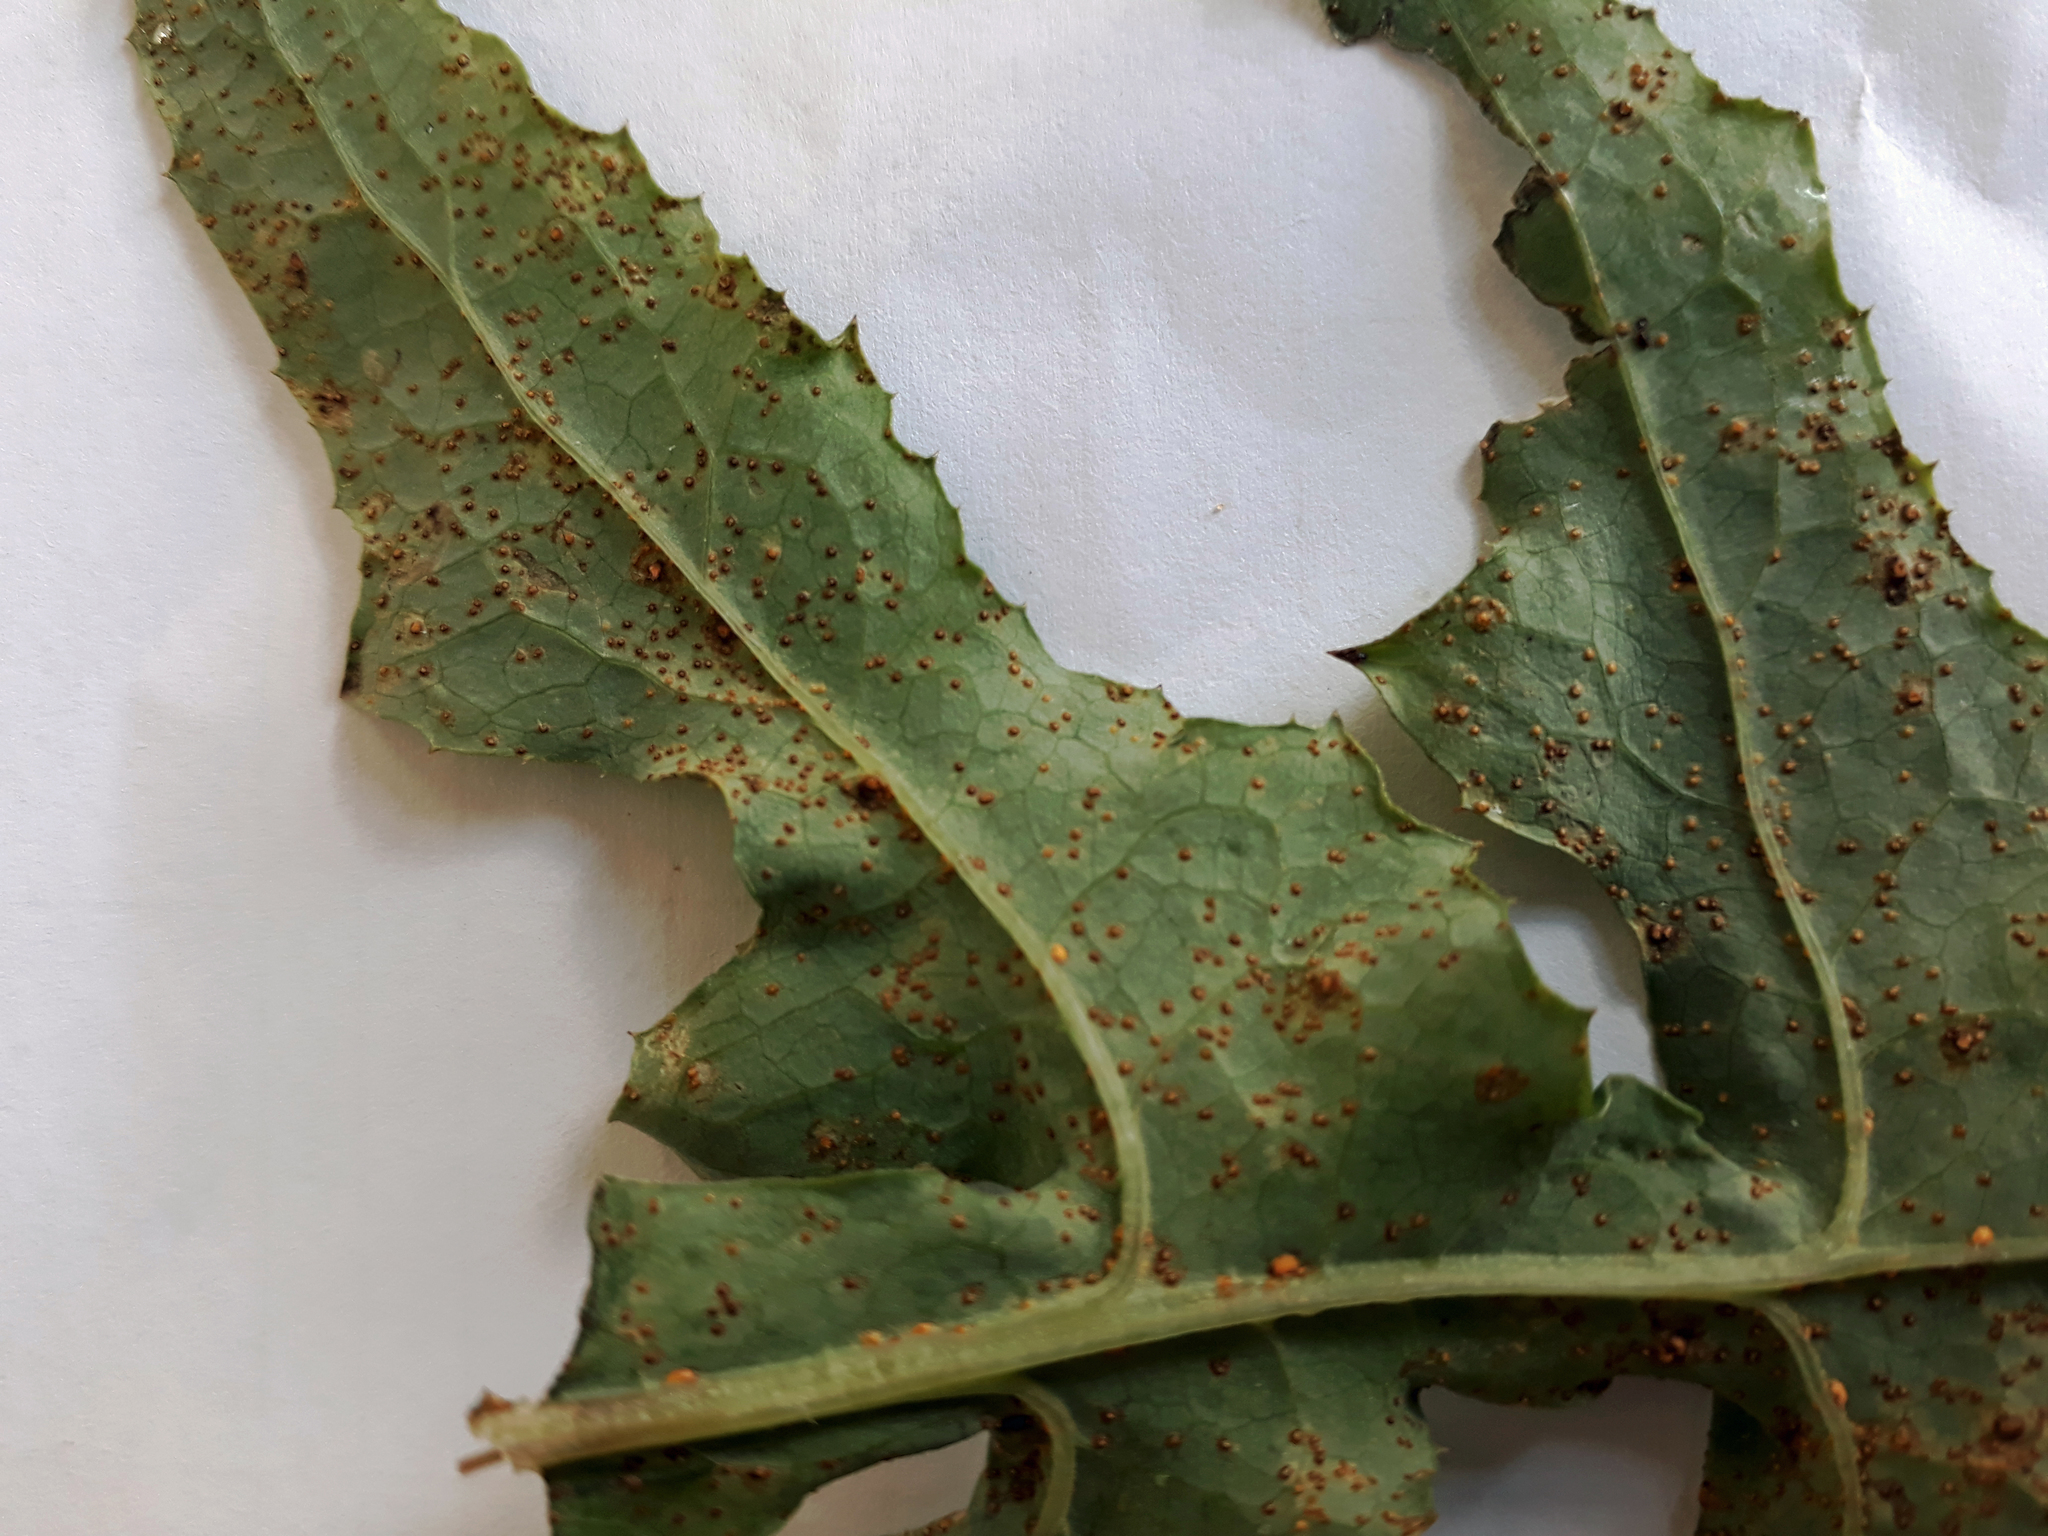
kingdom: Fungi
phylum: Basidiomycota
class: Pucciniomycetes
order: Pucciniales
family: Pucciniaceae
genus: Peristemma
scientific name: Peristemma pseudosphaeria
